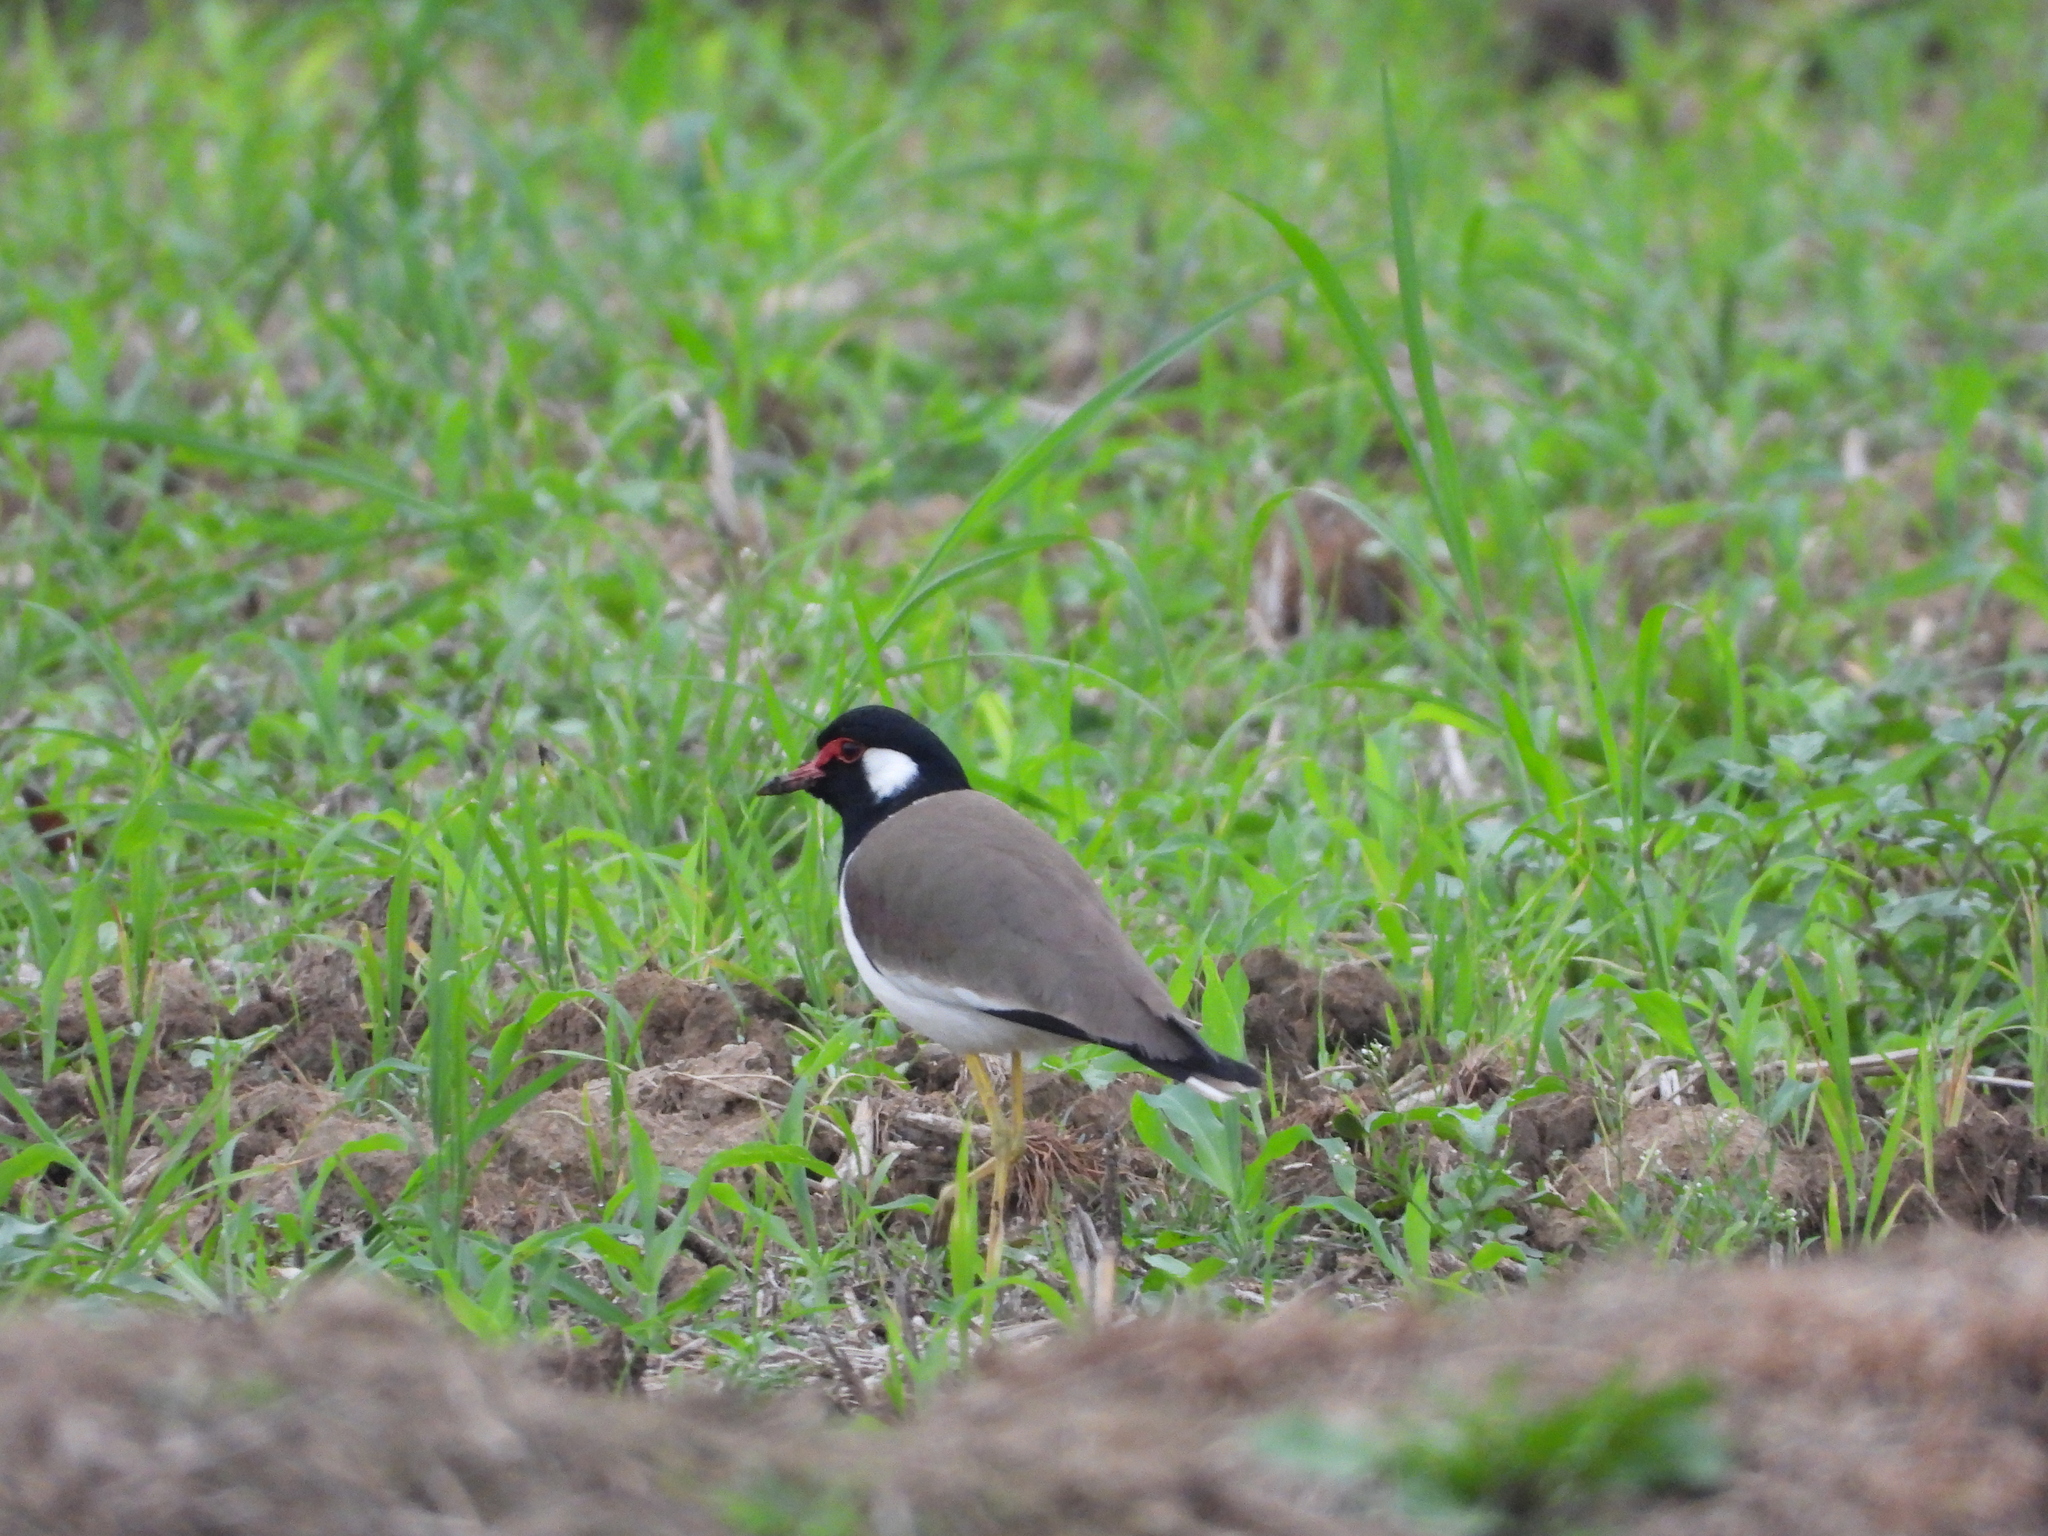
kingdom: Animalia
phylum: Chordata
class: Aves
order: Charadriiformes
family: Charadriidae
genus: Vanellus
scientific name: Vanellus indicus
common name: Red-wattled lapwing
